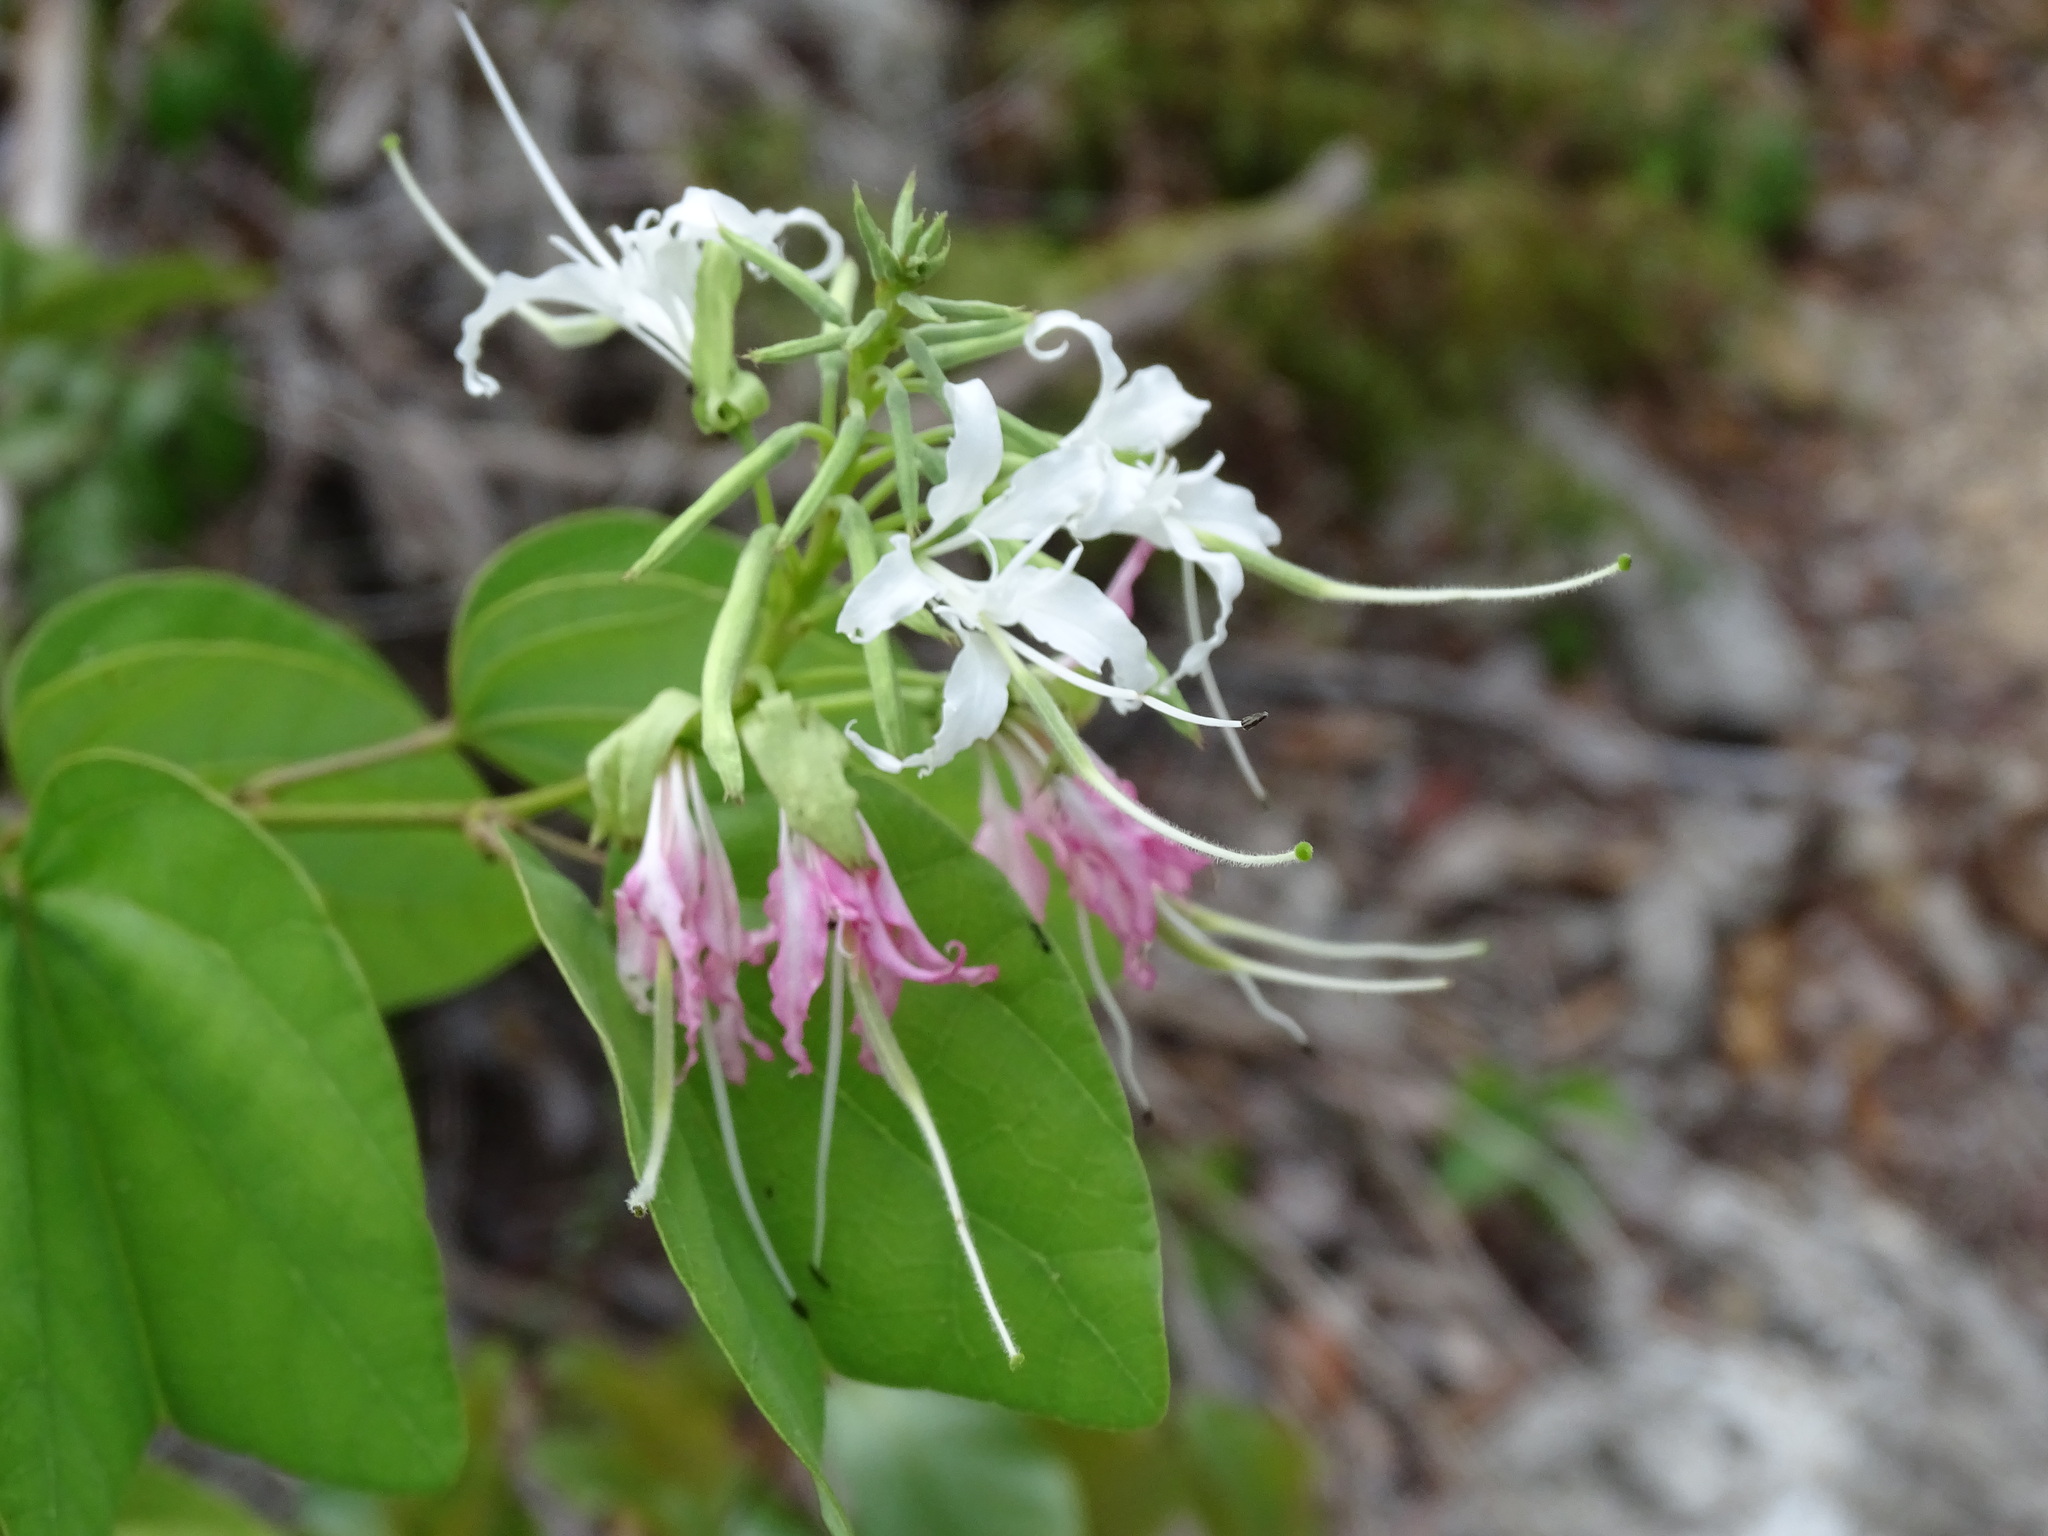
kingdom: Plantae
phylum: Tracheophyta
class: Magnoliopsida
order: Fabales
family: Fabaceae
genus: Bauhinia
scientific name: Bauhinia divaricata
